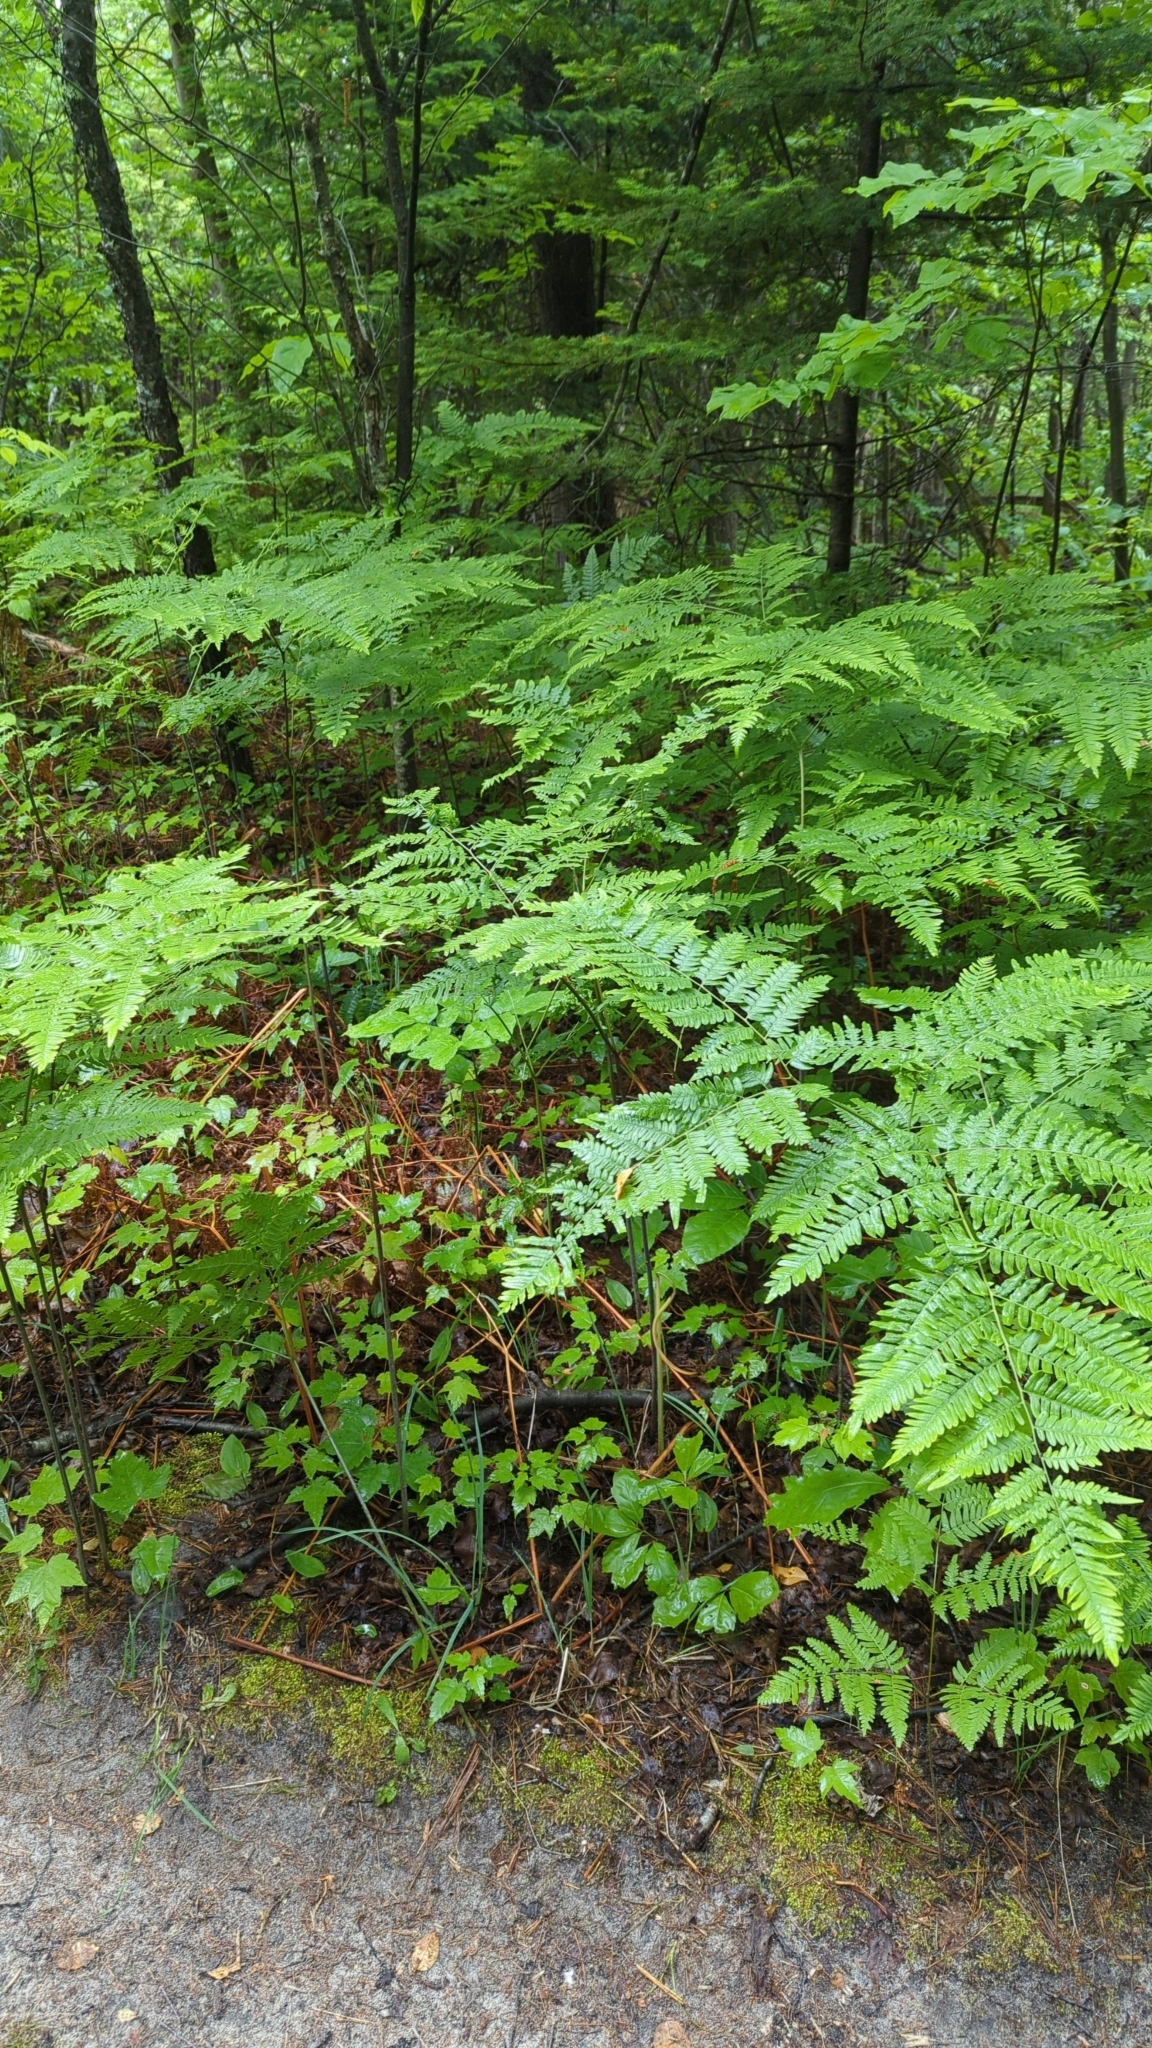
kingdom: Plantae
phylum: Tracheophyta
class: Polypodiopsida
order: Polypodiales
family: Dennstaedtiaceae
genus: Pteridium
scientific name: Pteridium aquilinum
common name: Bracken
